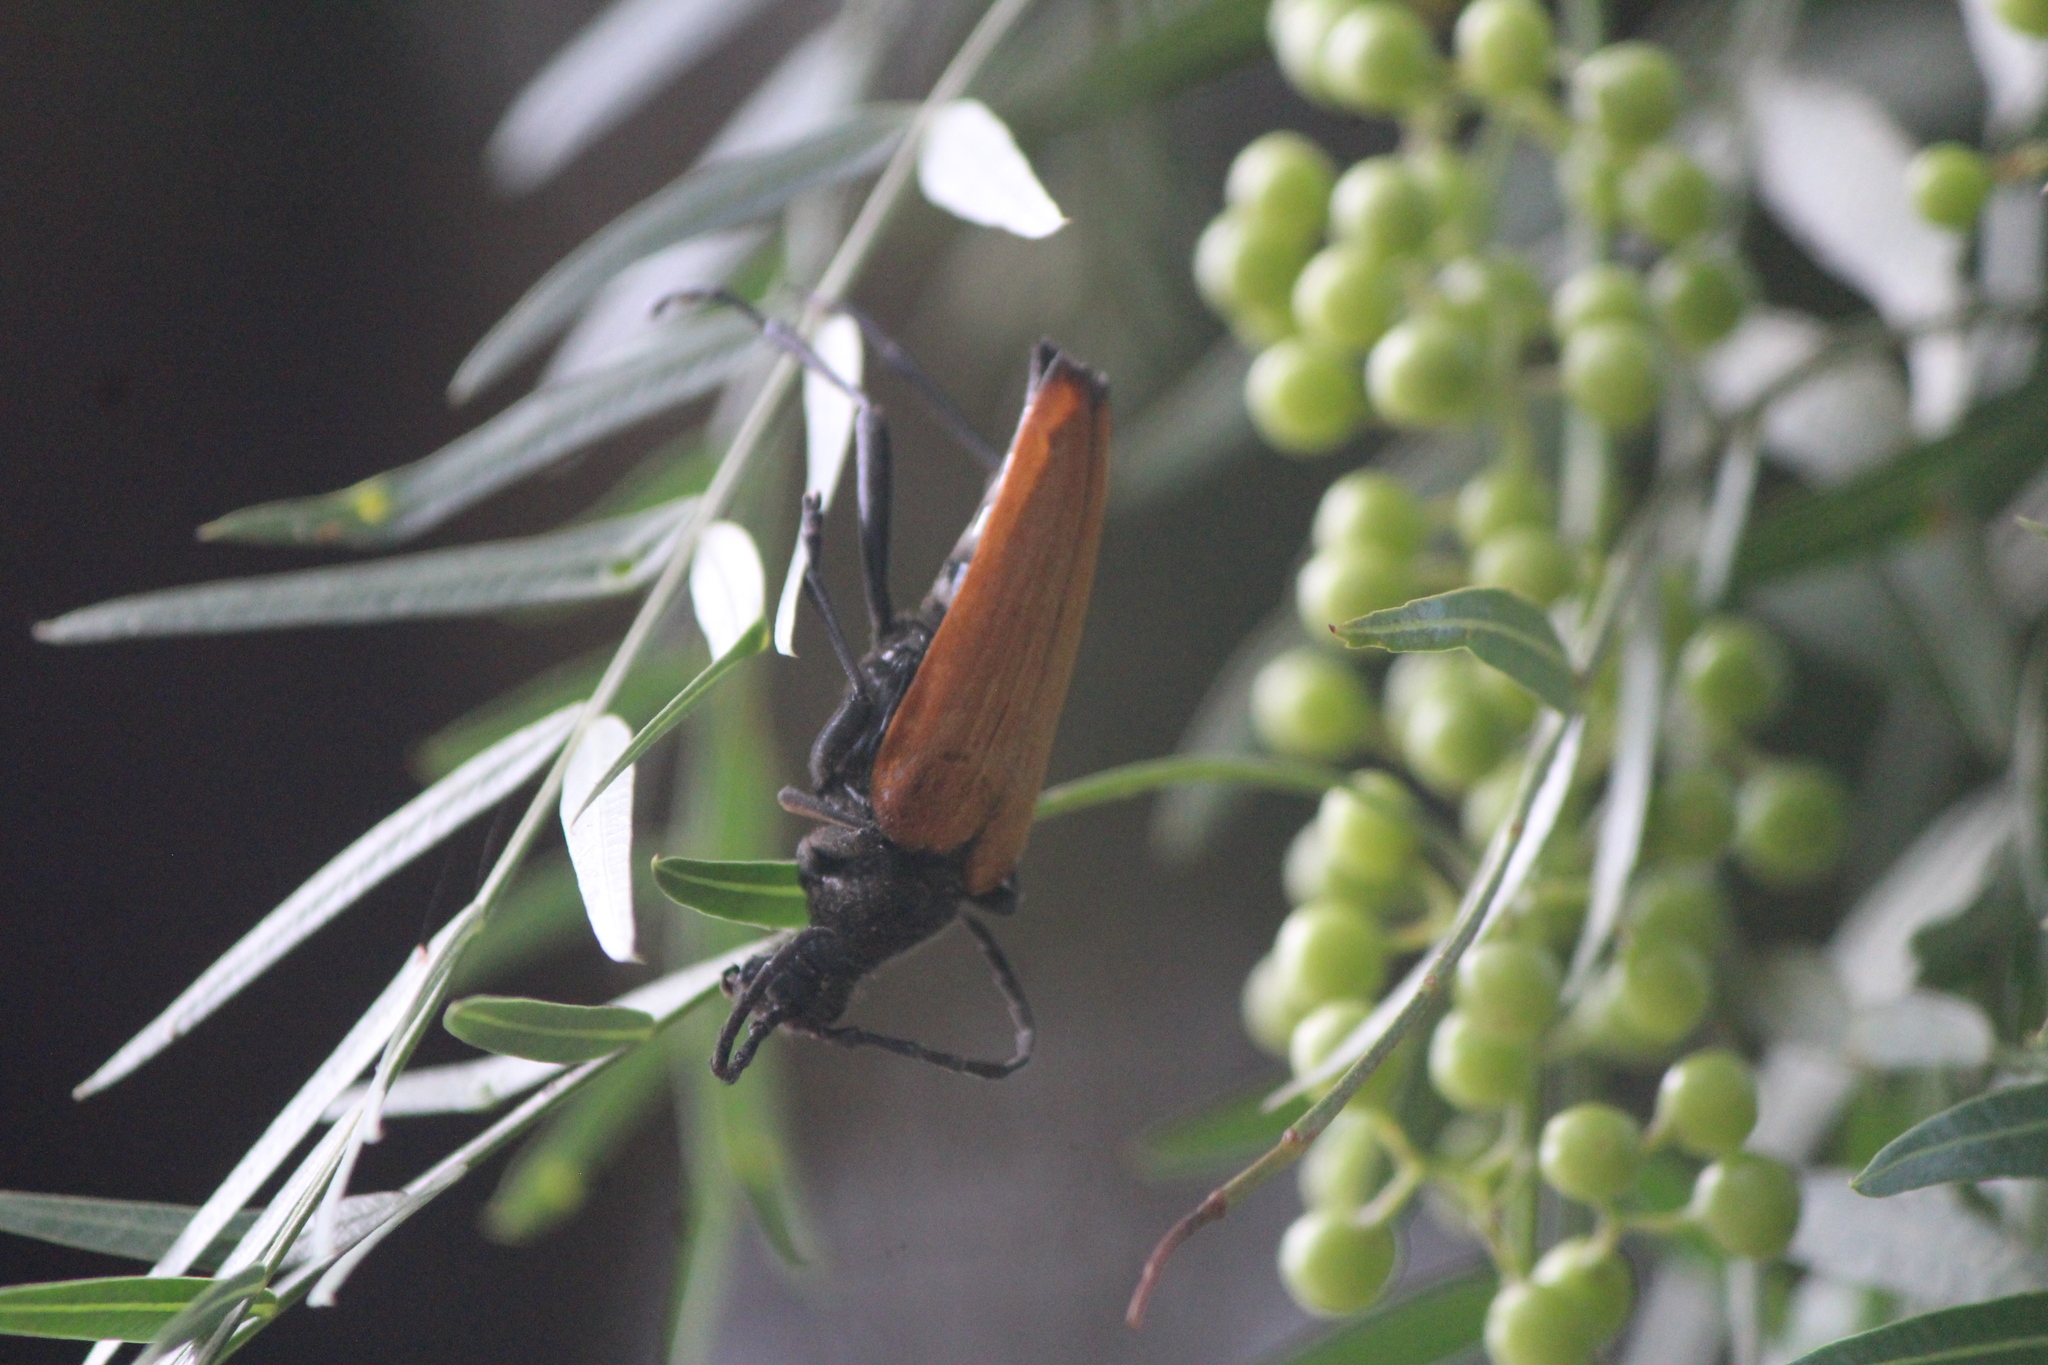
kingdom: Animalia
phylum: Arthropoda
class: Insecta
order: Coleoptera
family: Cerambycidae
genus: Stenelytrana
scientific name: Stenelytrana gigas
